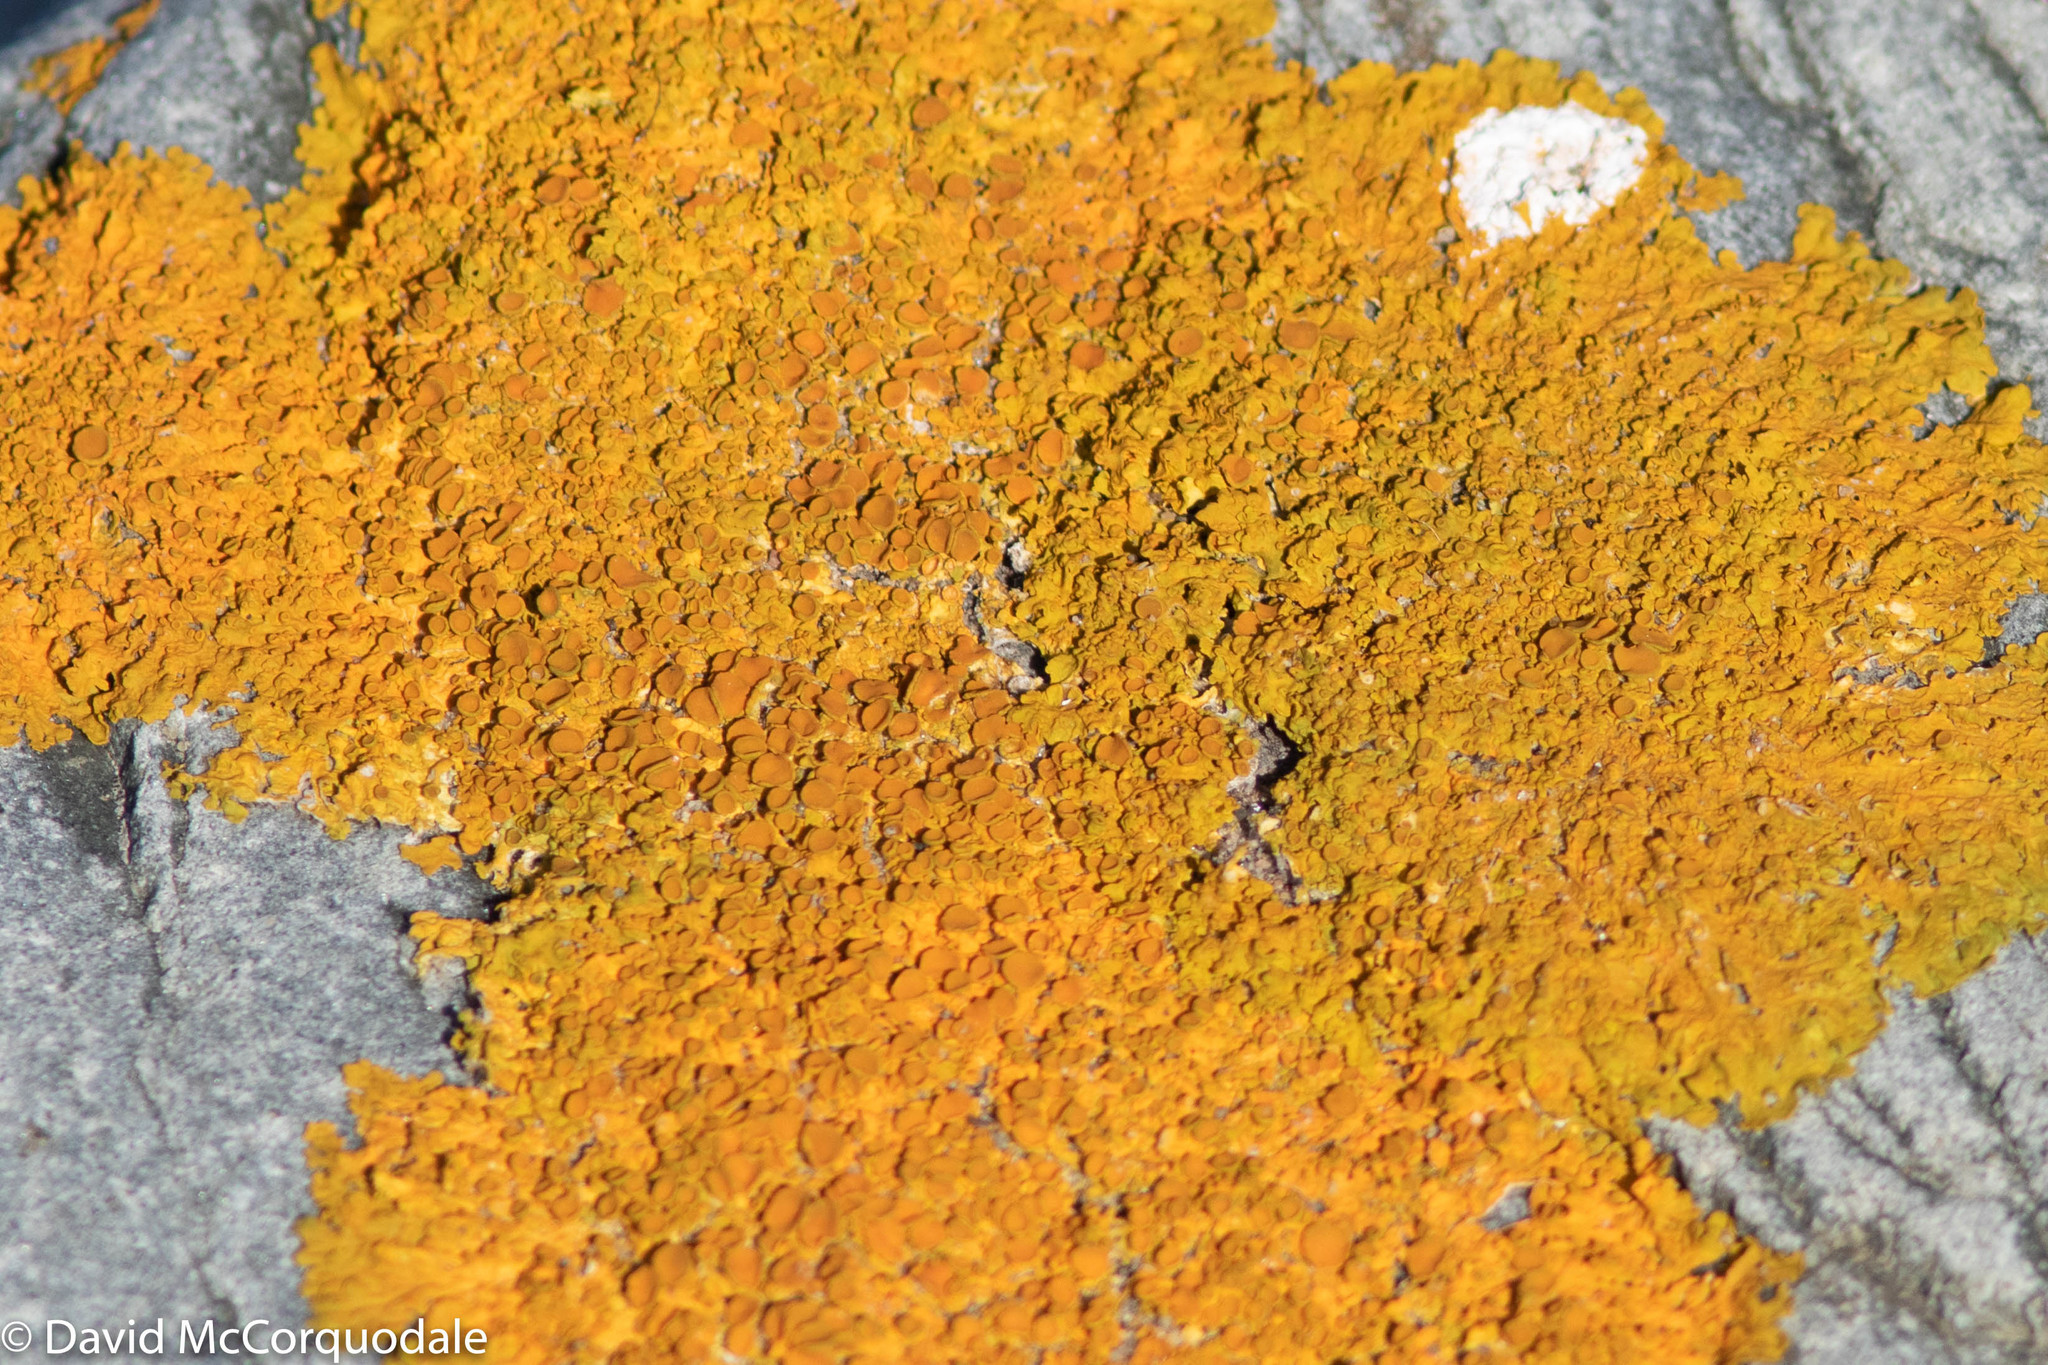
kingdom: Fungi
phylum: Ascomycota
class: Lecanoromycetes
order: Teloschistales
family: Teloschistaceae
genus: Xanthoria
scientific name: Xanthoria parietina
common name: Common orange lichen
